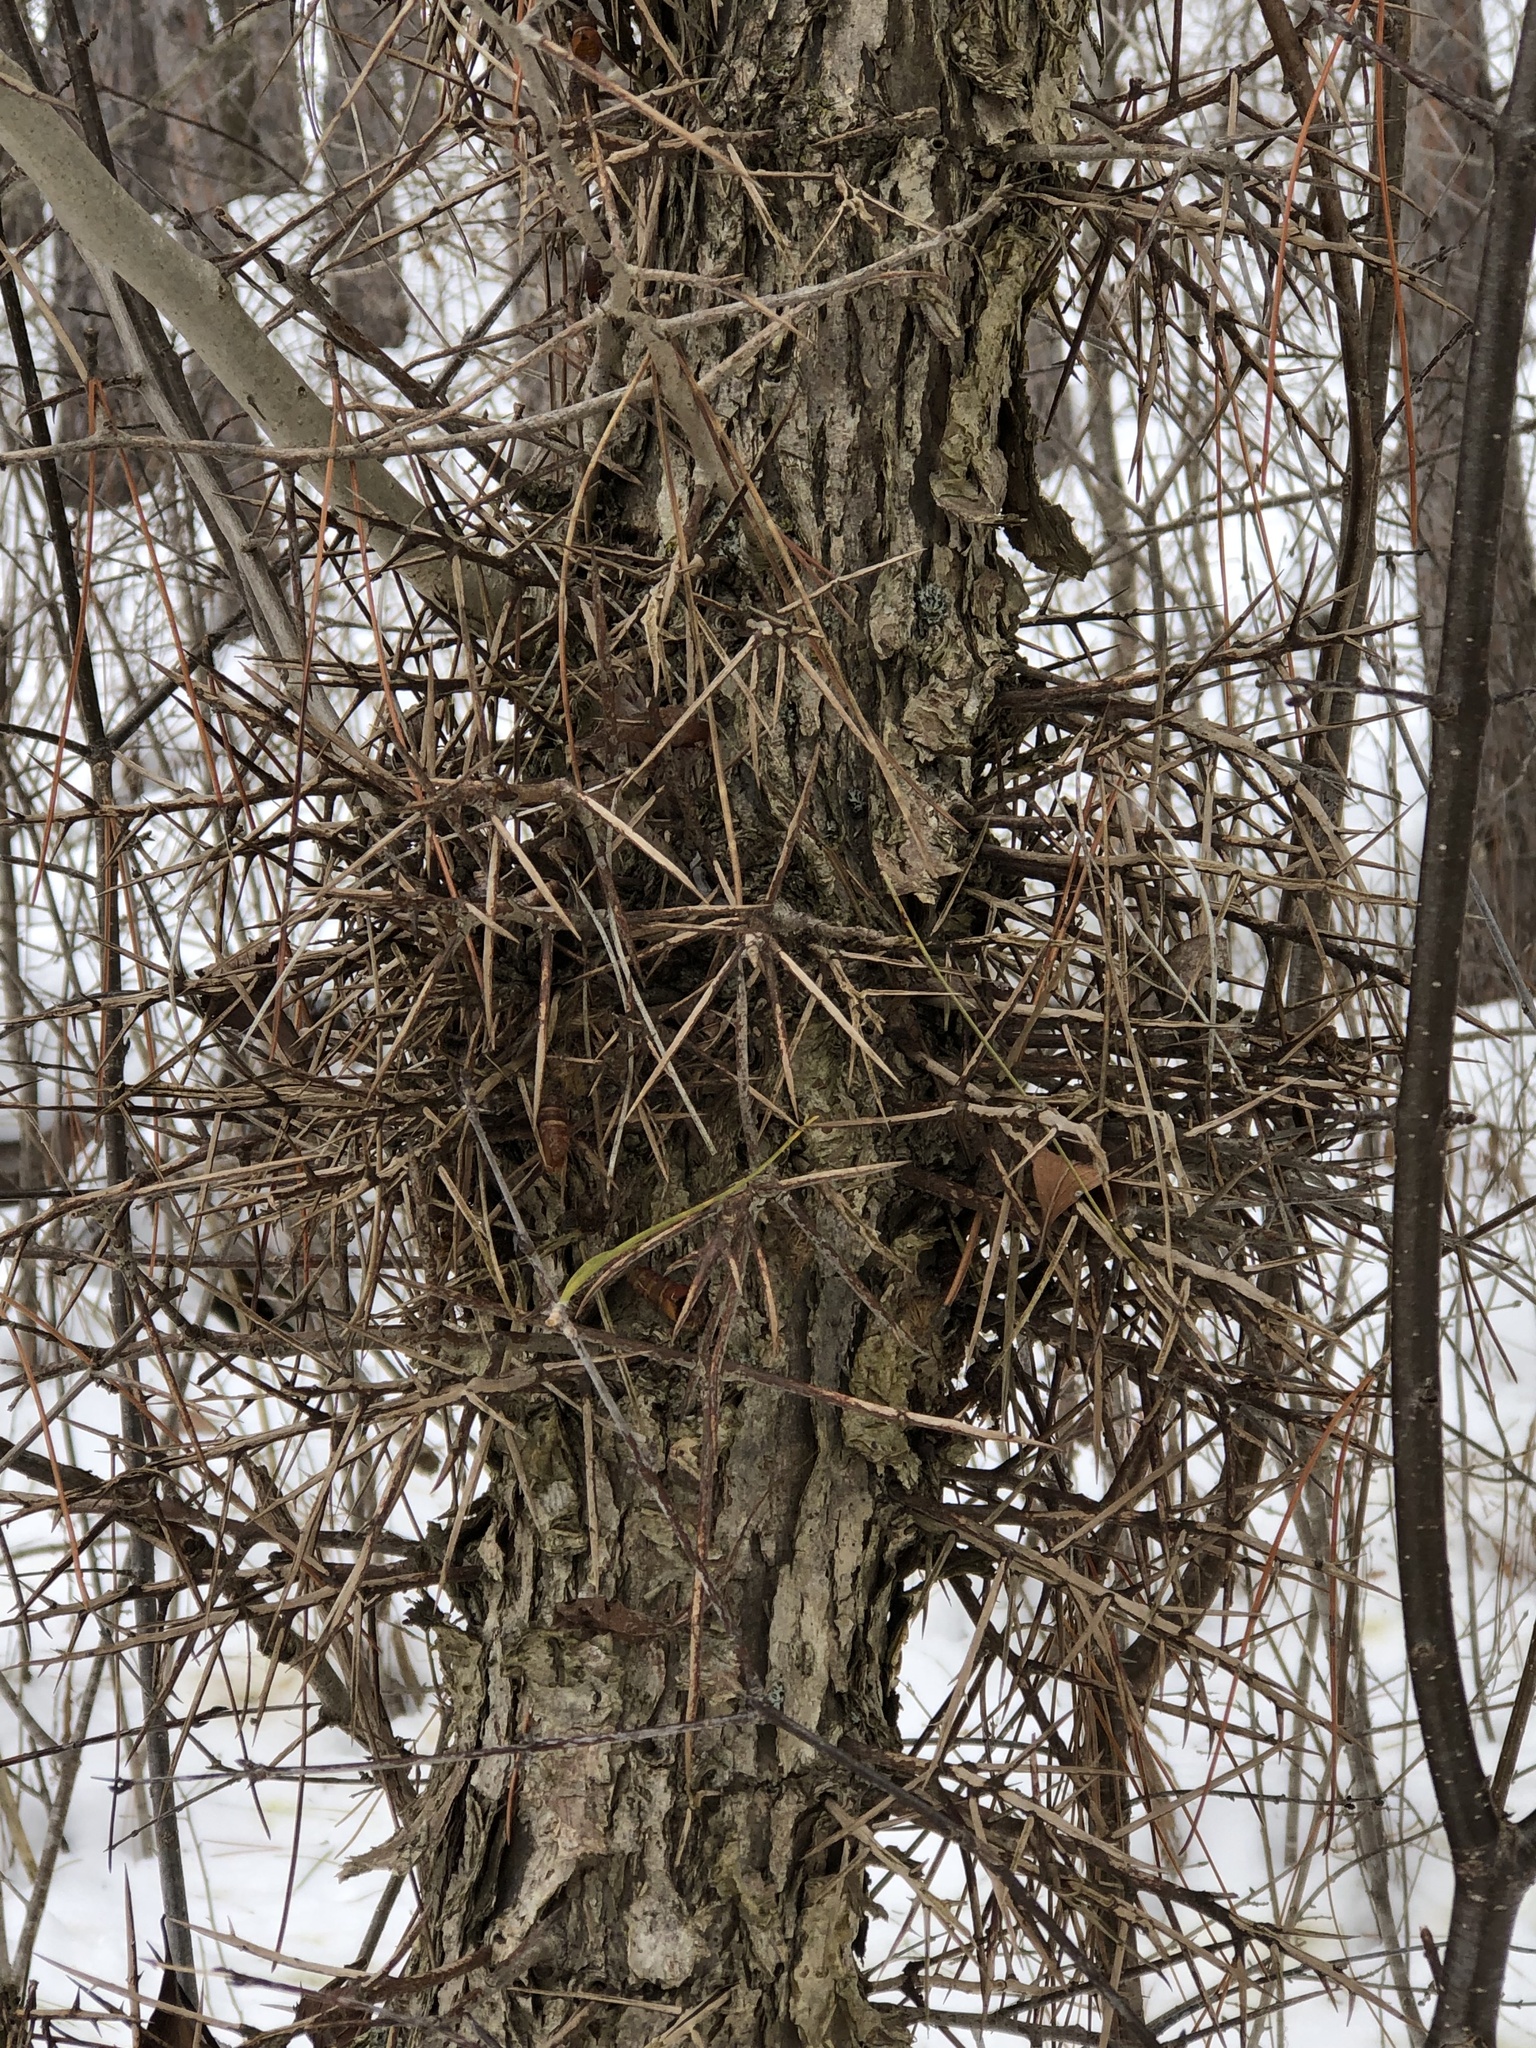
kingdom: Plantae
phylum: Tracheophyta
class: Magnoliopsida
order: Fabales
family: Fabaceae
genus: Gleditsia
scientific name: Gleditsia triacanthos
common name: Common honeylocust
